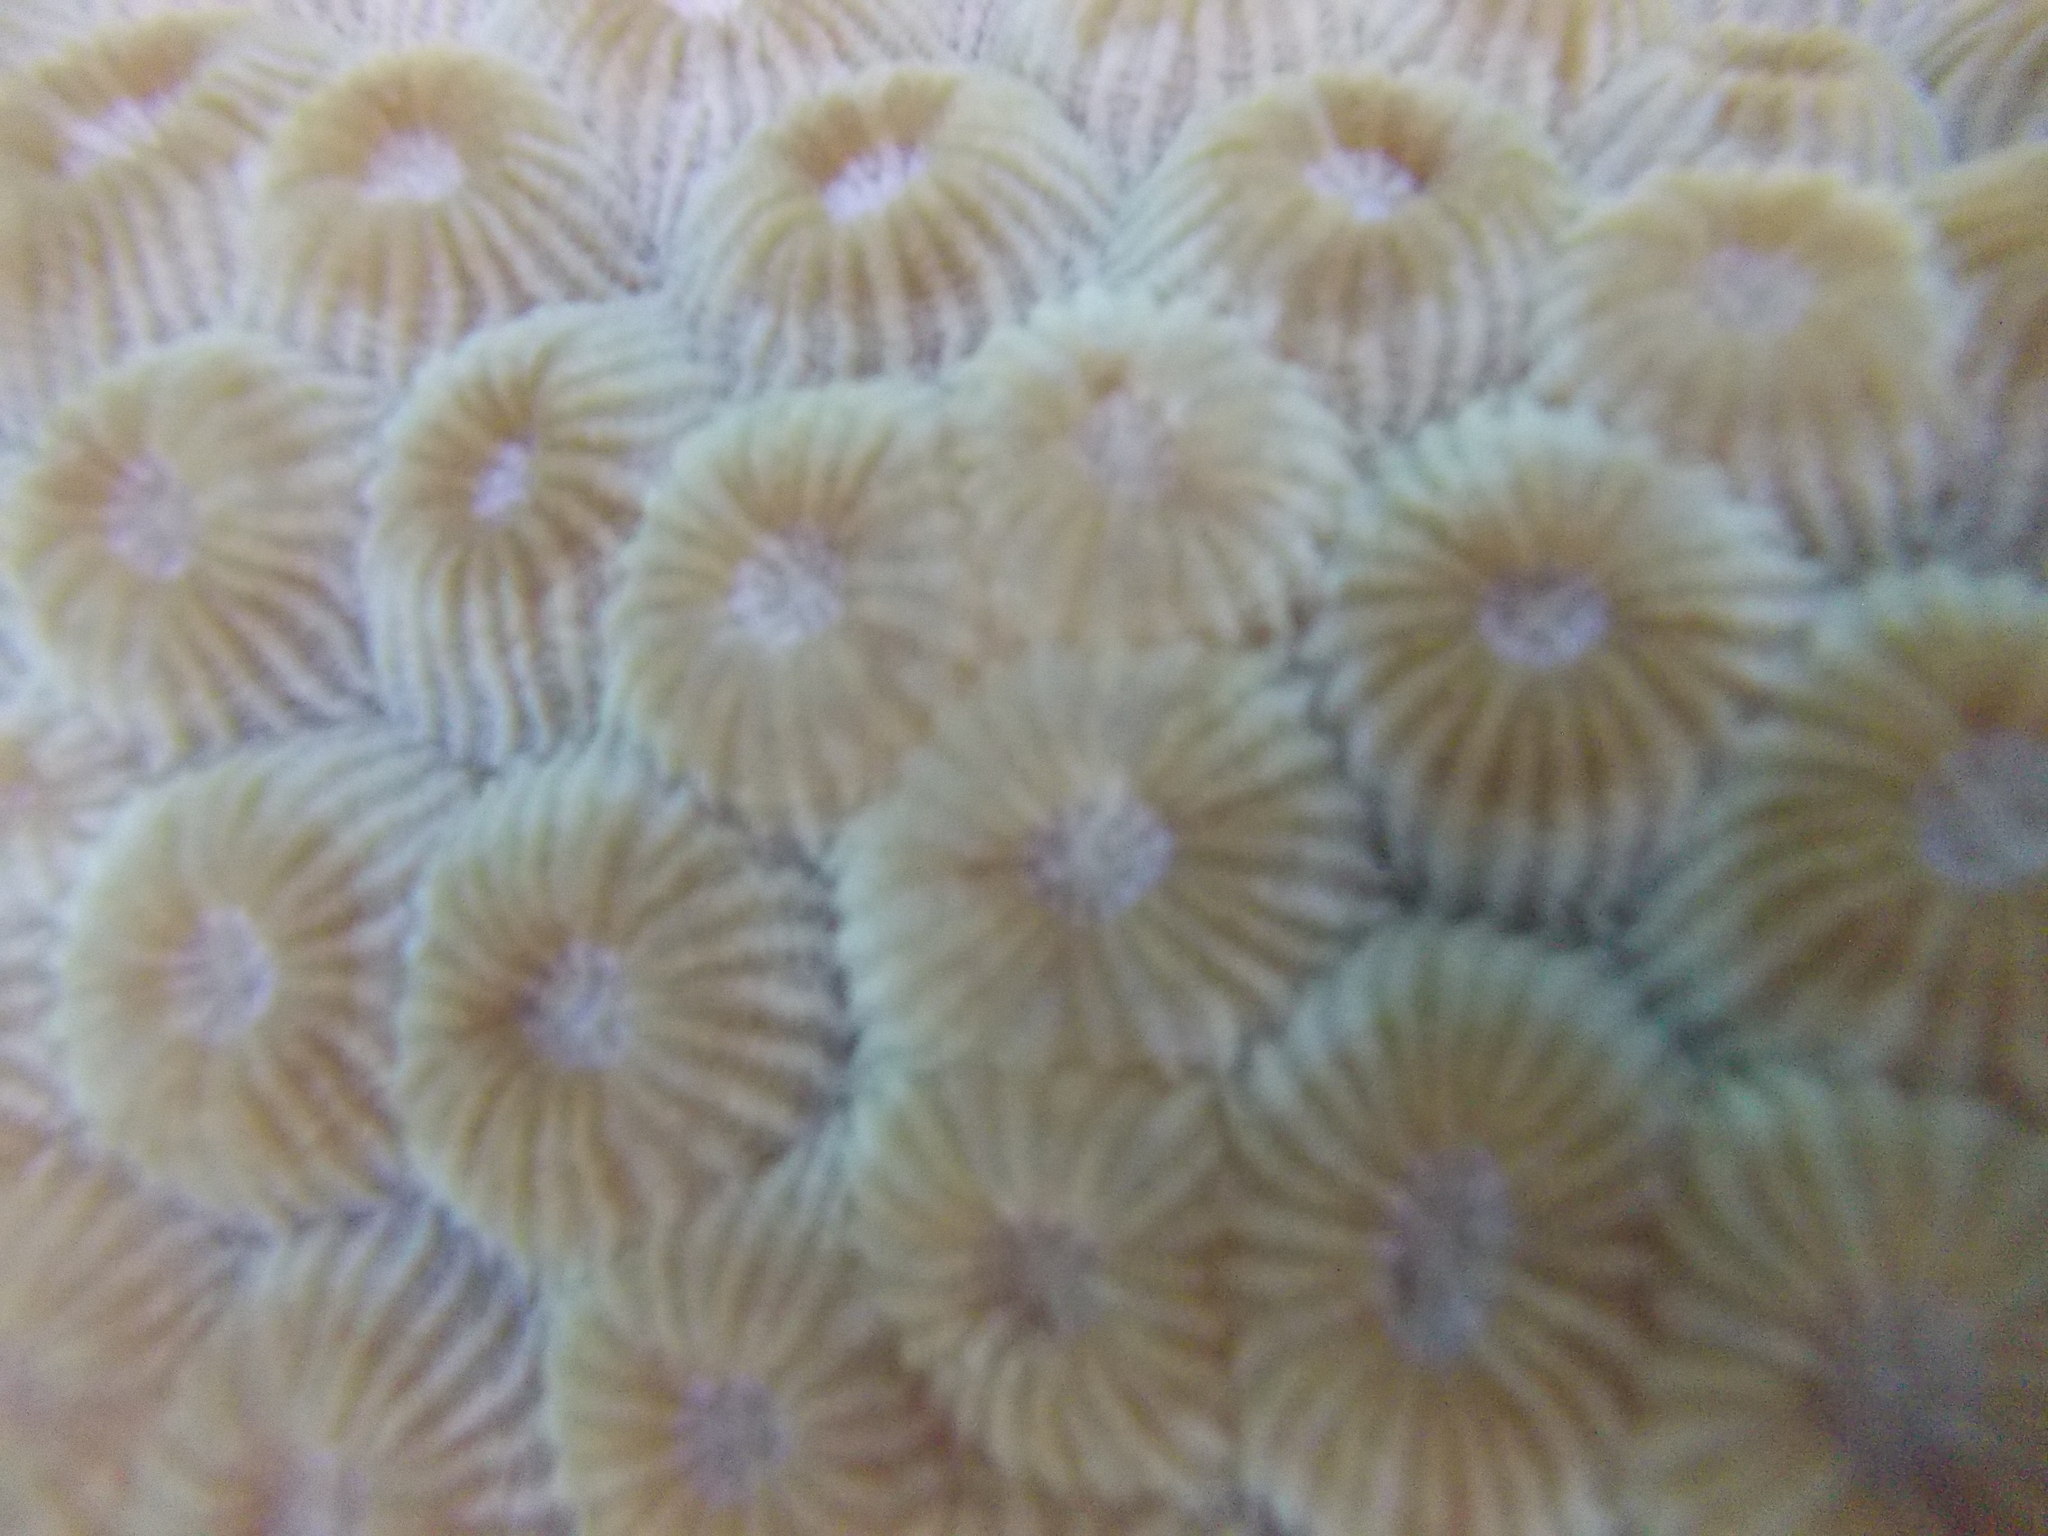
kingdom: Animalia
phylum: Cnidaria
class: Anthozoa
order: Scleractinia
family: Diploastraeidae
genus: Diploastrea
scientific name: Diploastrea heliopora
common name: Double-star coral
